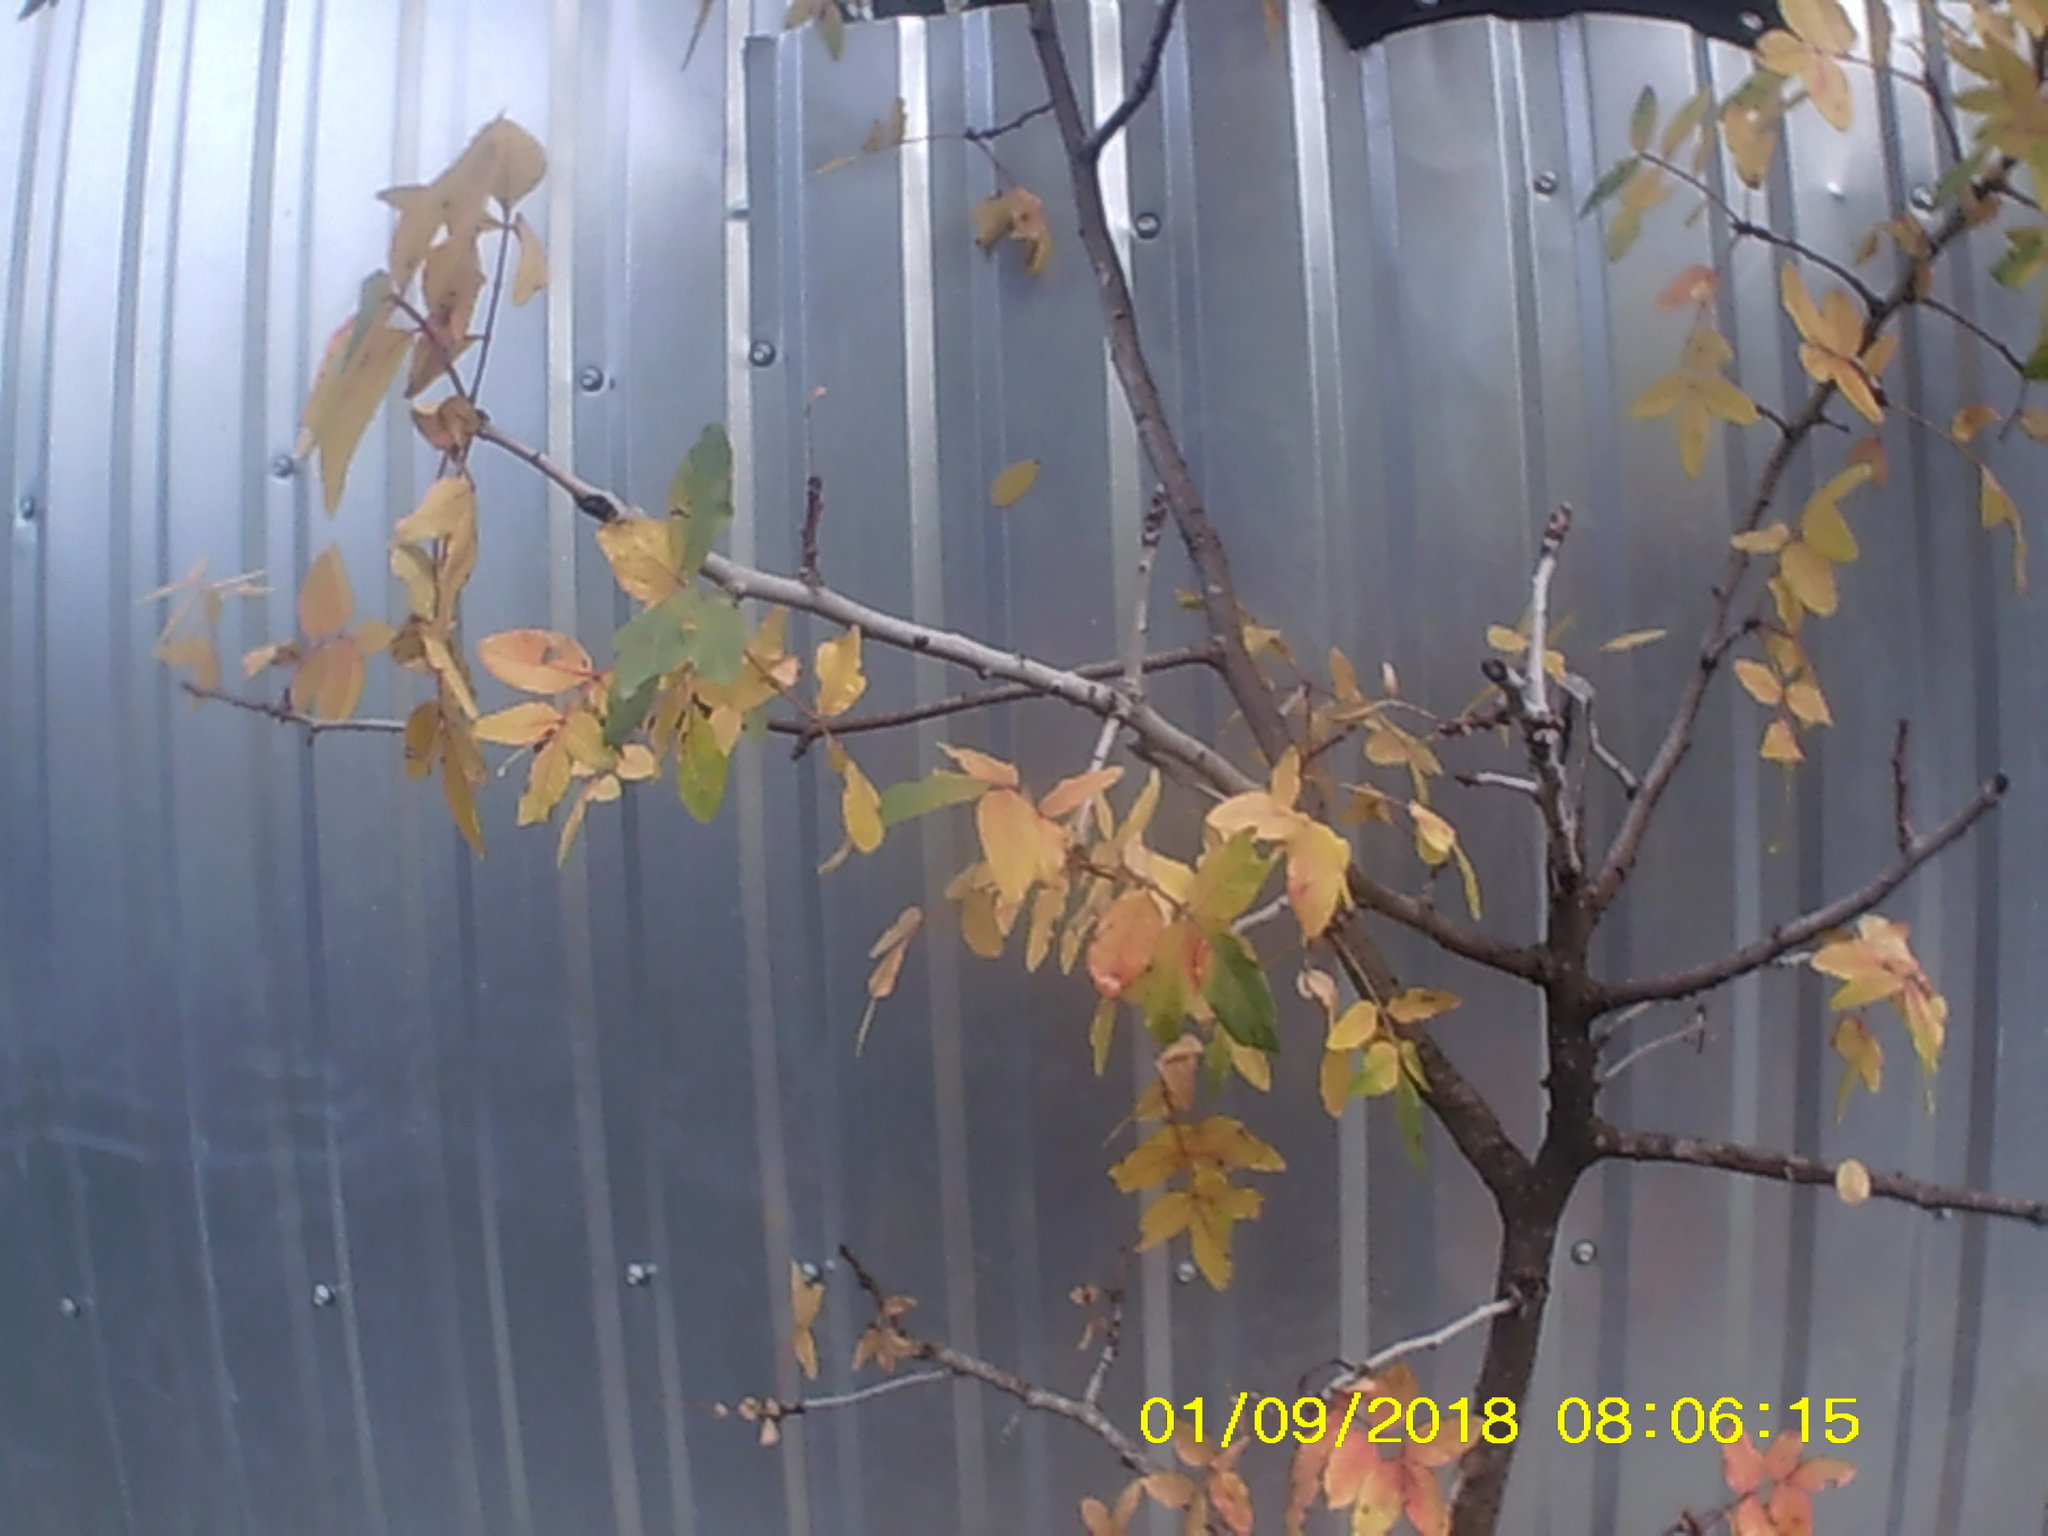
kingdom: Plantae
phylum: Tracheophyta
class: Magnoliopsida
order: Sapindales
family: Anacardiaceae
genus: Pistacia
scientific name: Pistacia atlantica
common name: Mt. atlas mastic tree
